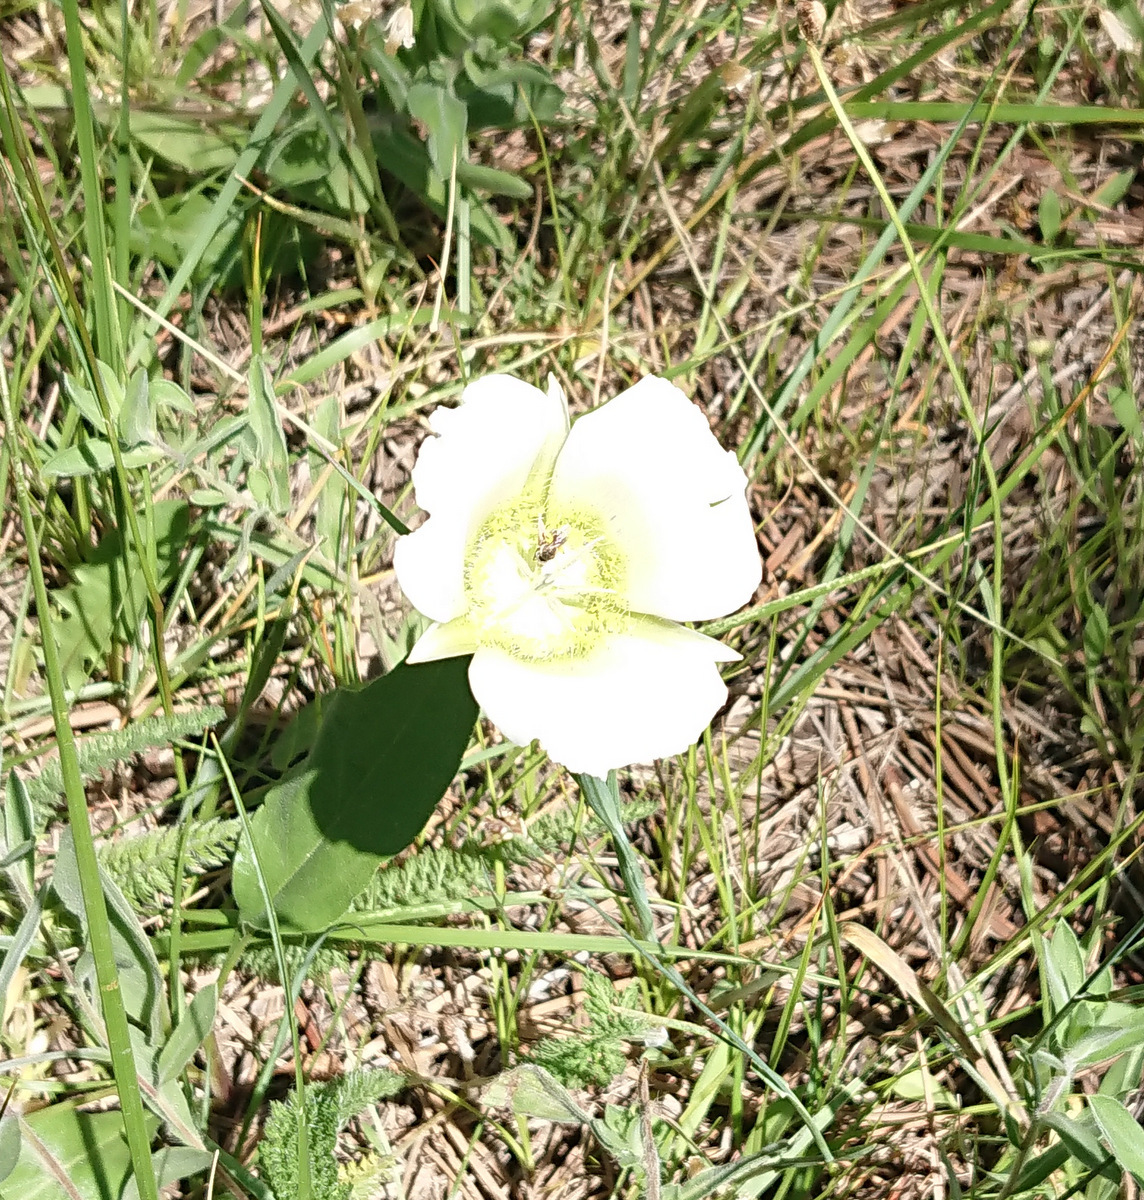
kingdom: Plantae
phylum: Tracheophyta
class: Liliopsida
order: Liliales
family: Liliaceae
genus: Calochortus
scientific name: Calochortus gunnisonii
